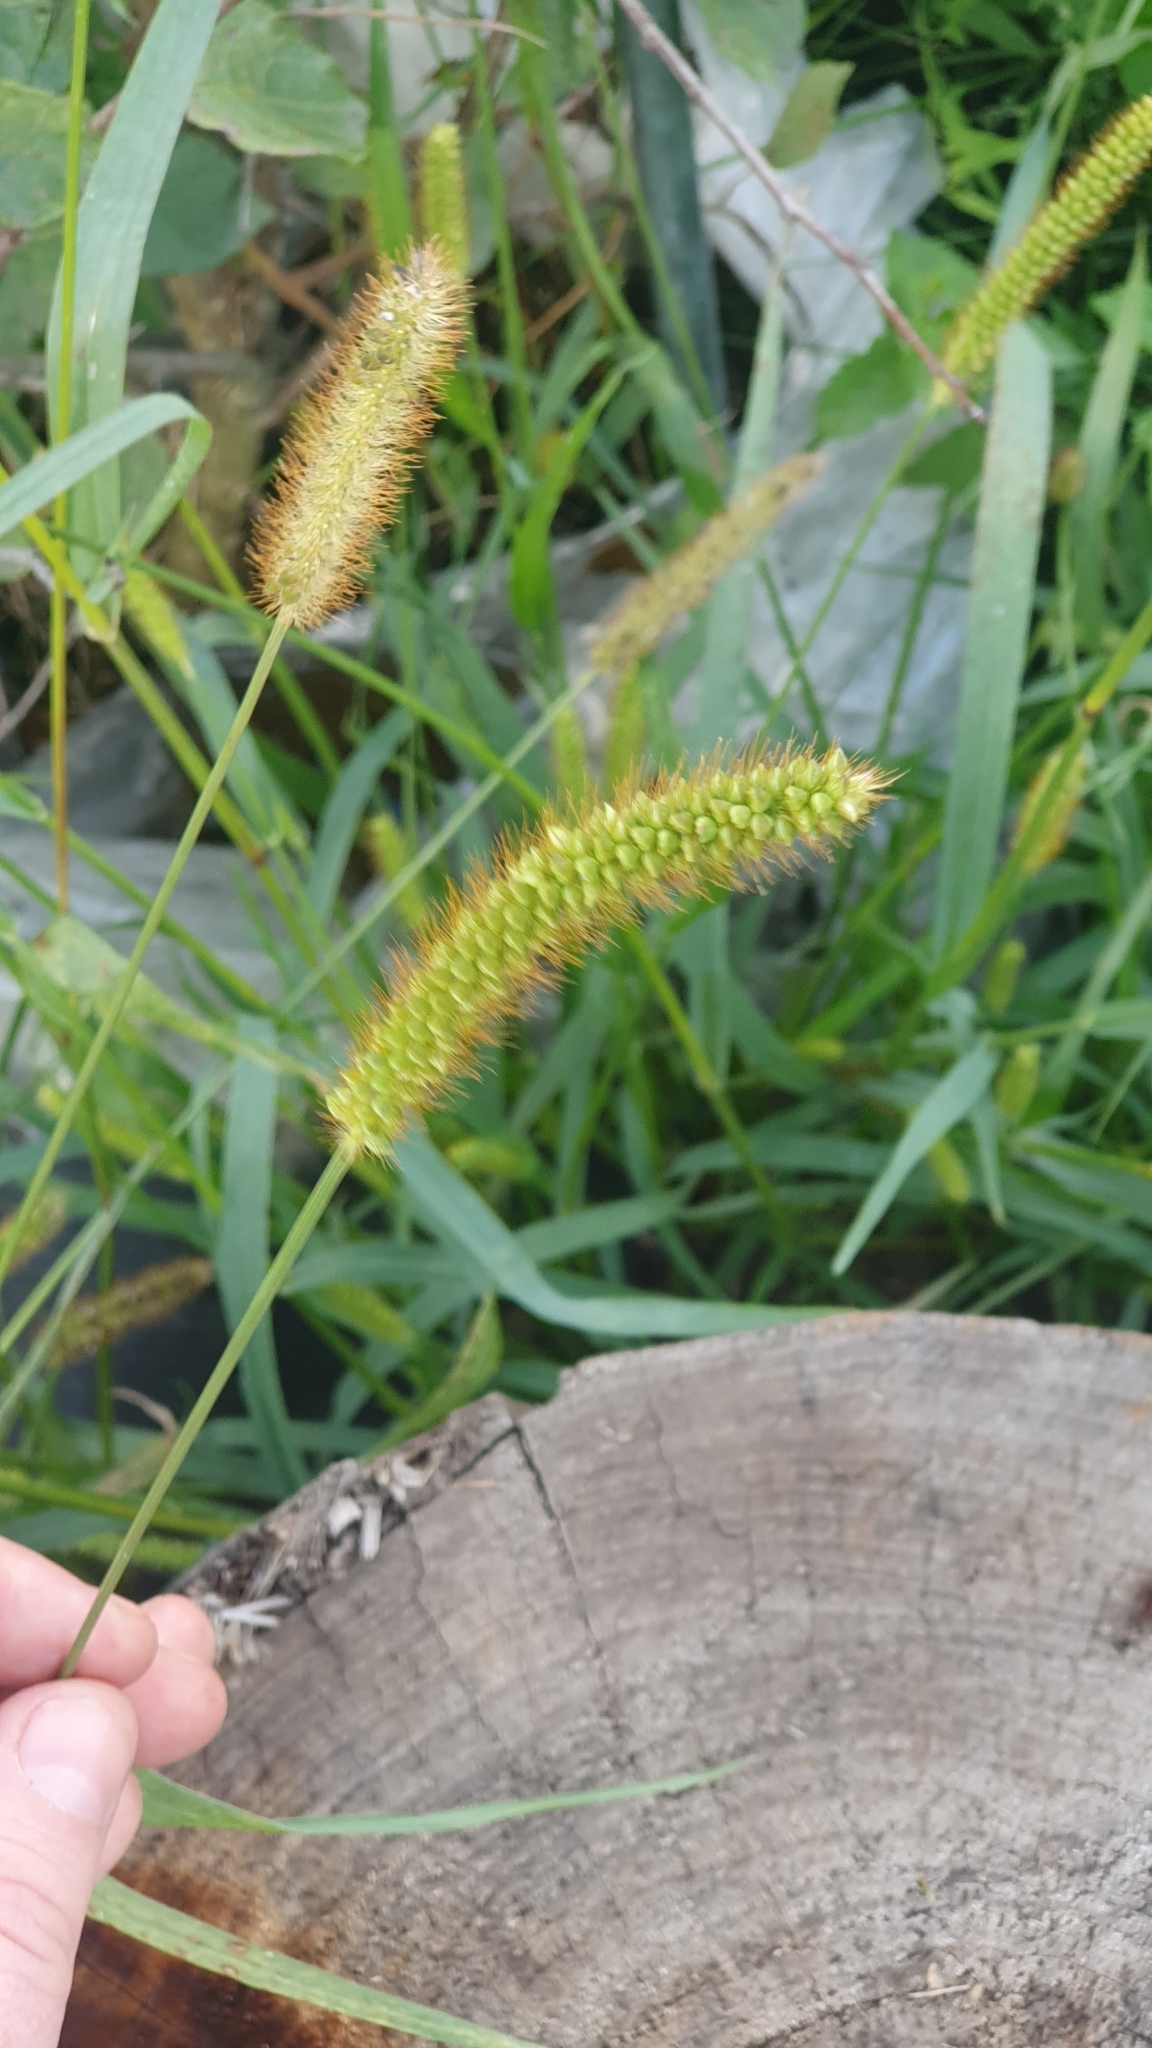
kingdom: Plantae
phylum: Tracheophyta
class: Liliopsida
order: Poales
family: Poaceae
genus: Setaria
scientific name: Setaria pumila
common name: Yellow bristle-grass
